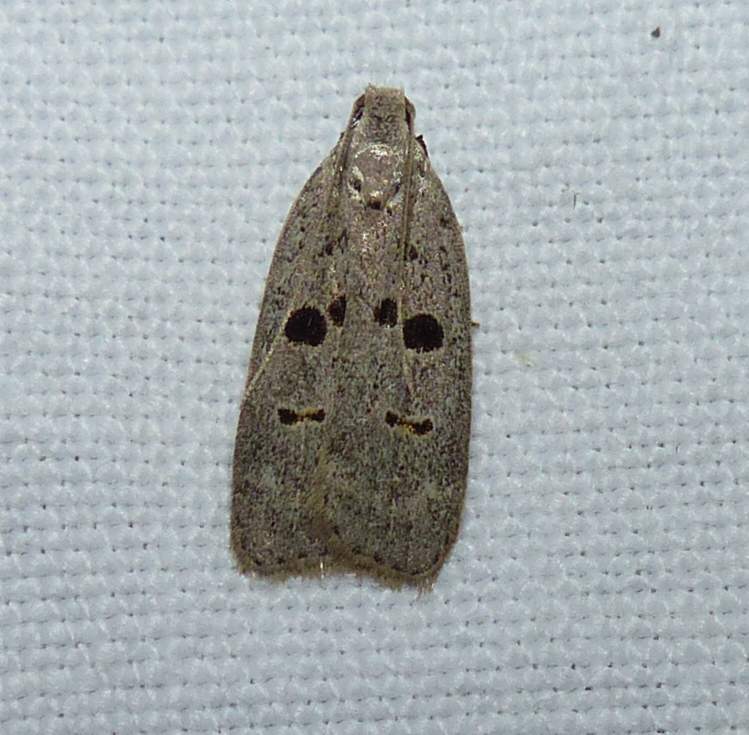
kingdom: Animalia
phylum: Arthropoda
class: Insecta
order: Lepidoptera
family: Gelechiidae
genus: Dichomeris
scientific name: Dichomeris glenni
